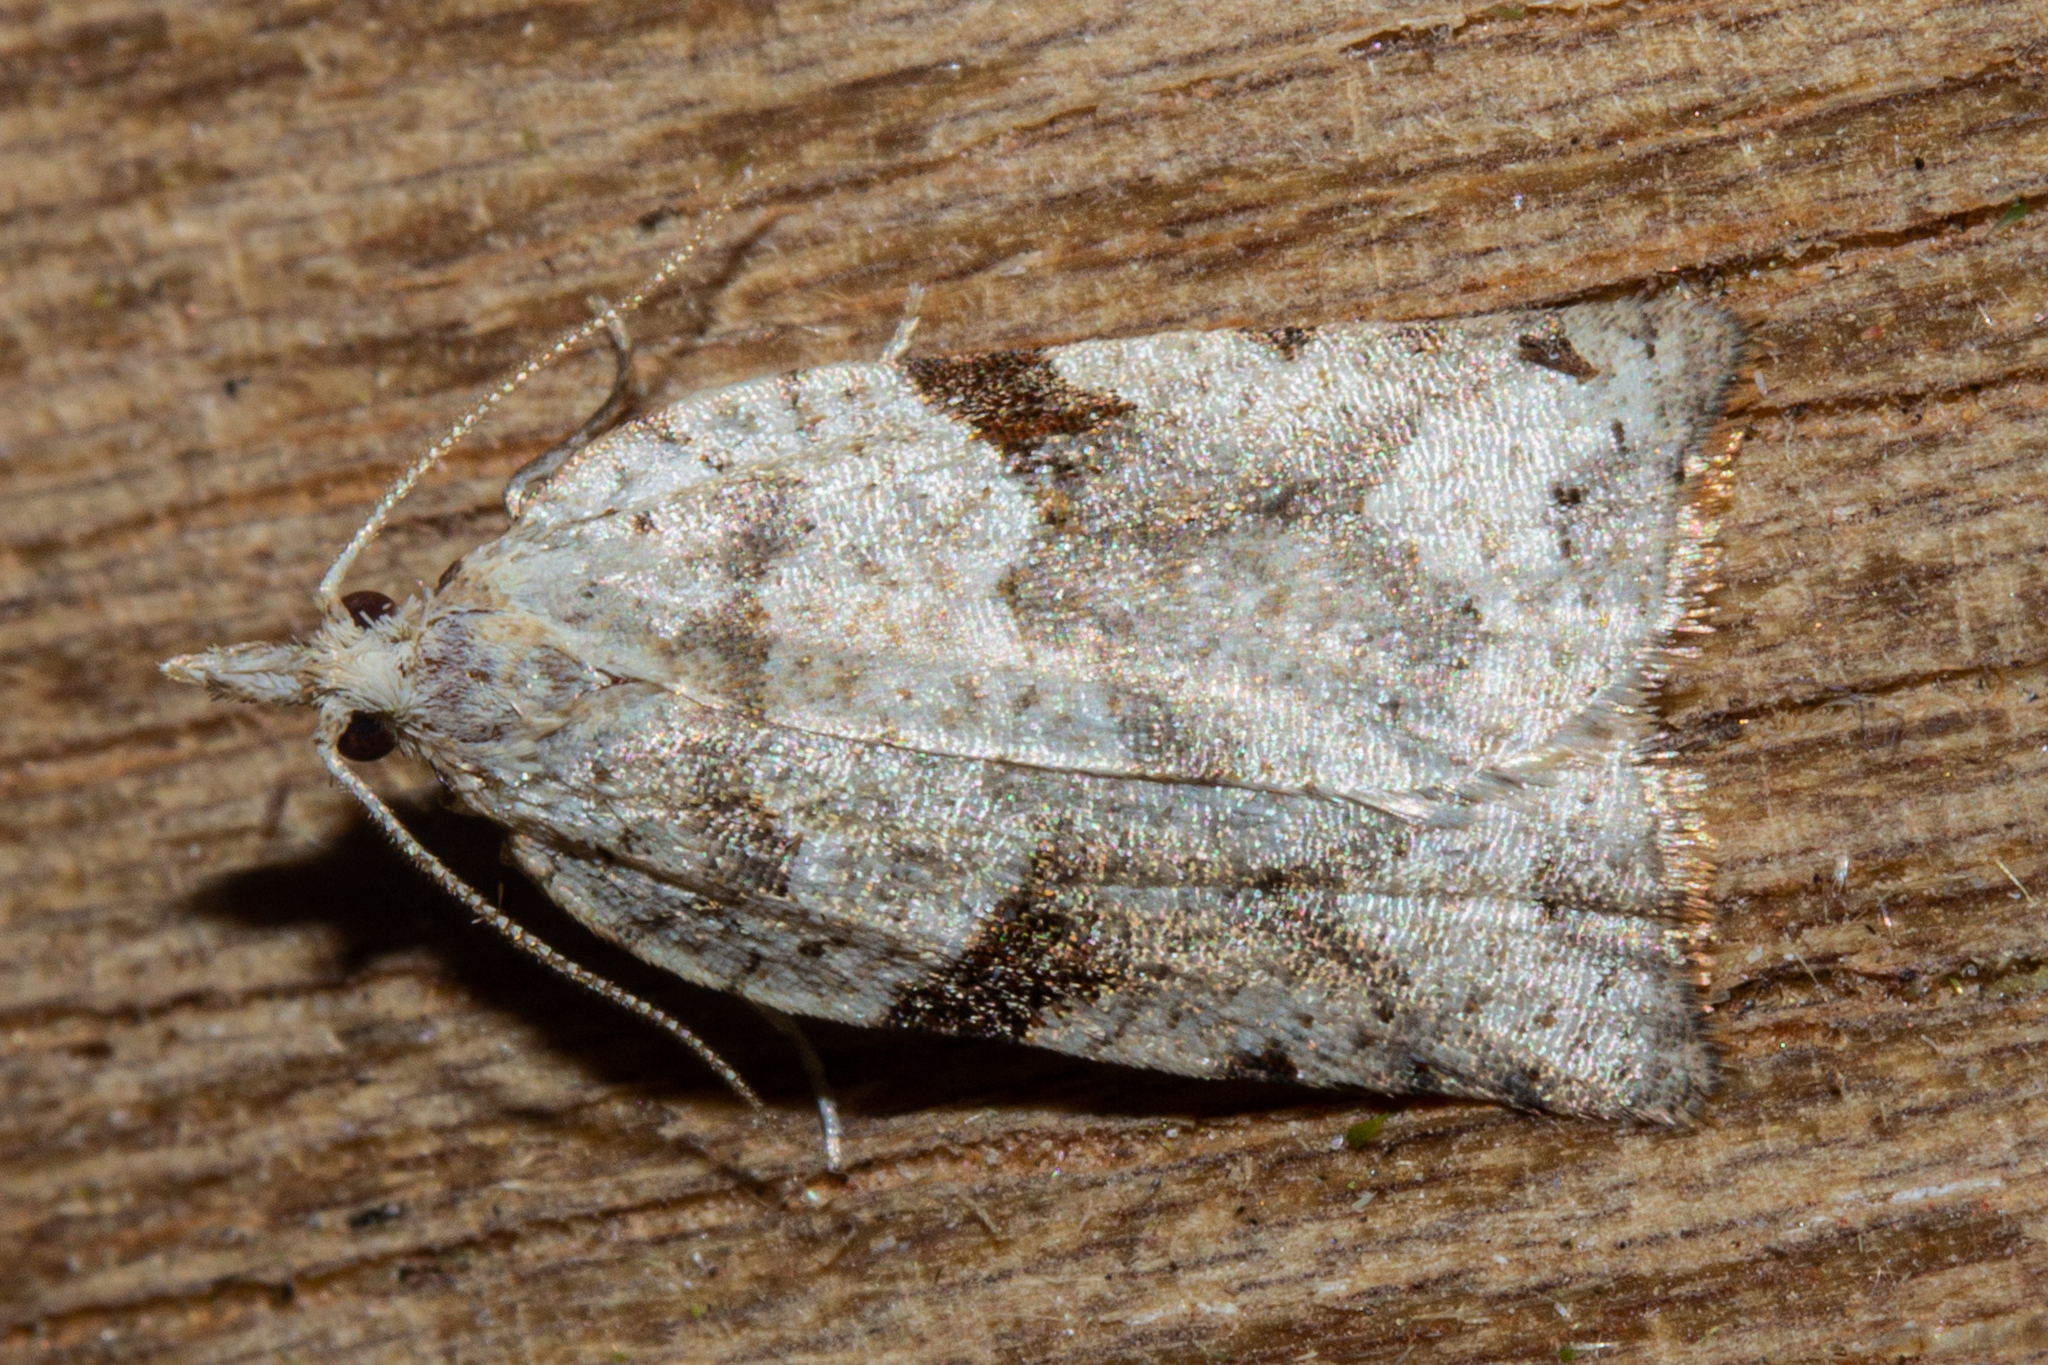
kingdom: Animalia
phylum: Arthropoda
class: Insecta
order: Lepidoptera
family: Tortricidae
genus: Leucotenes
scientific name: Leucotenes coprosmae
